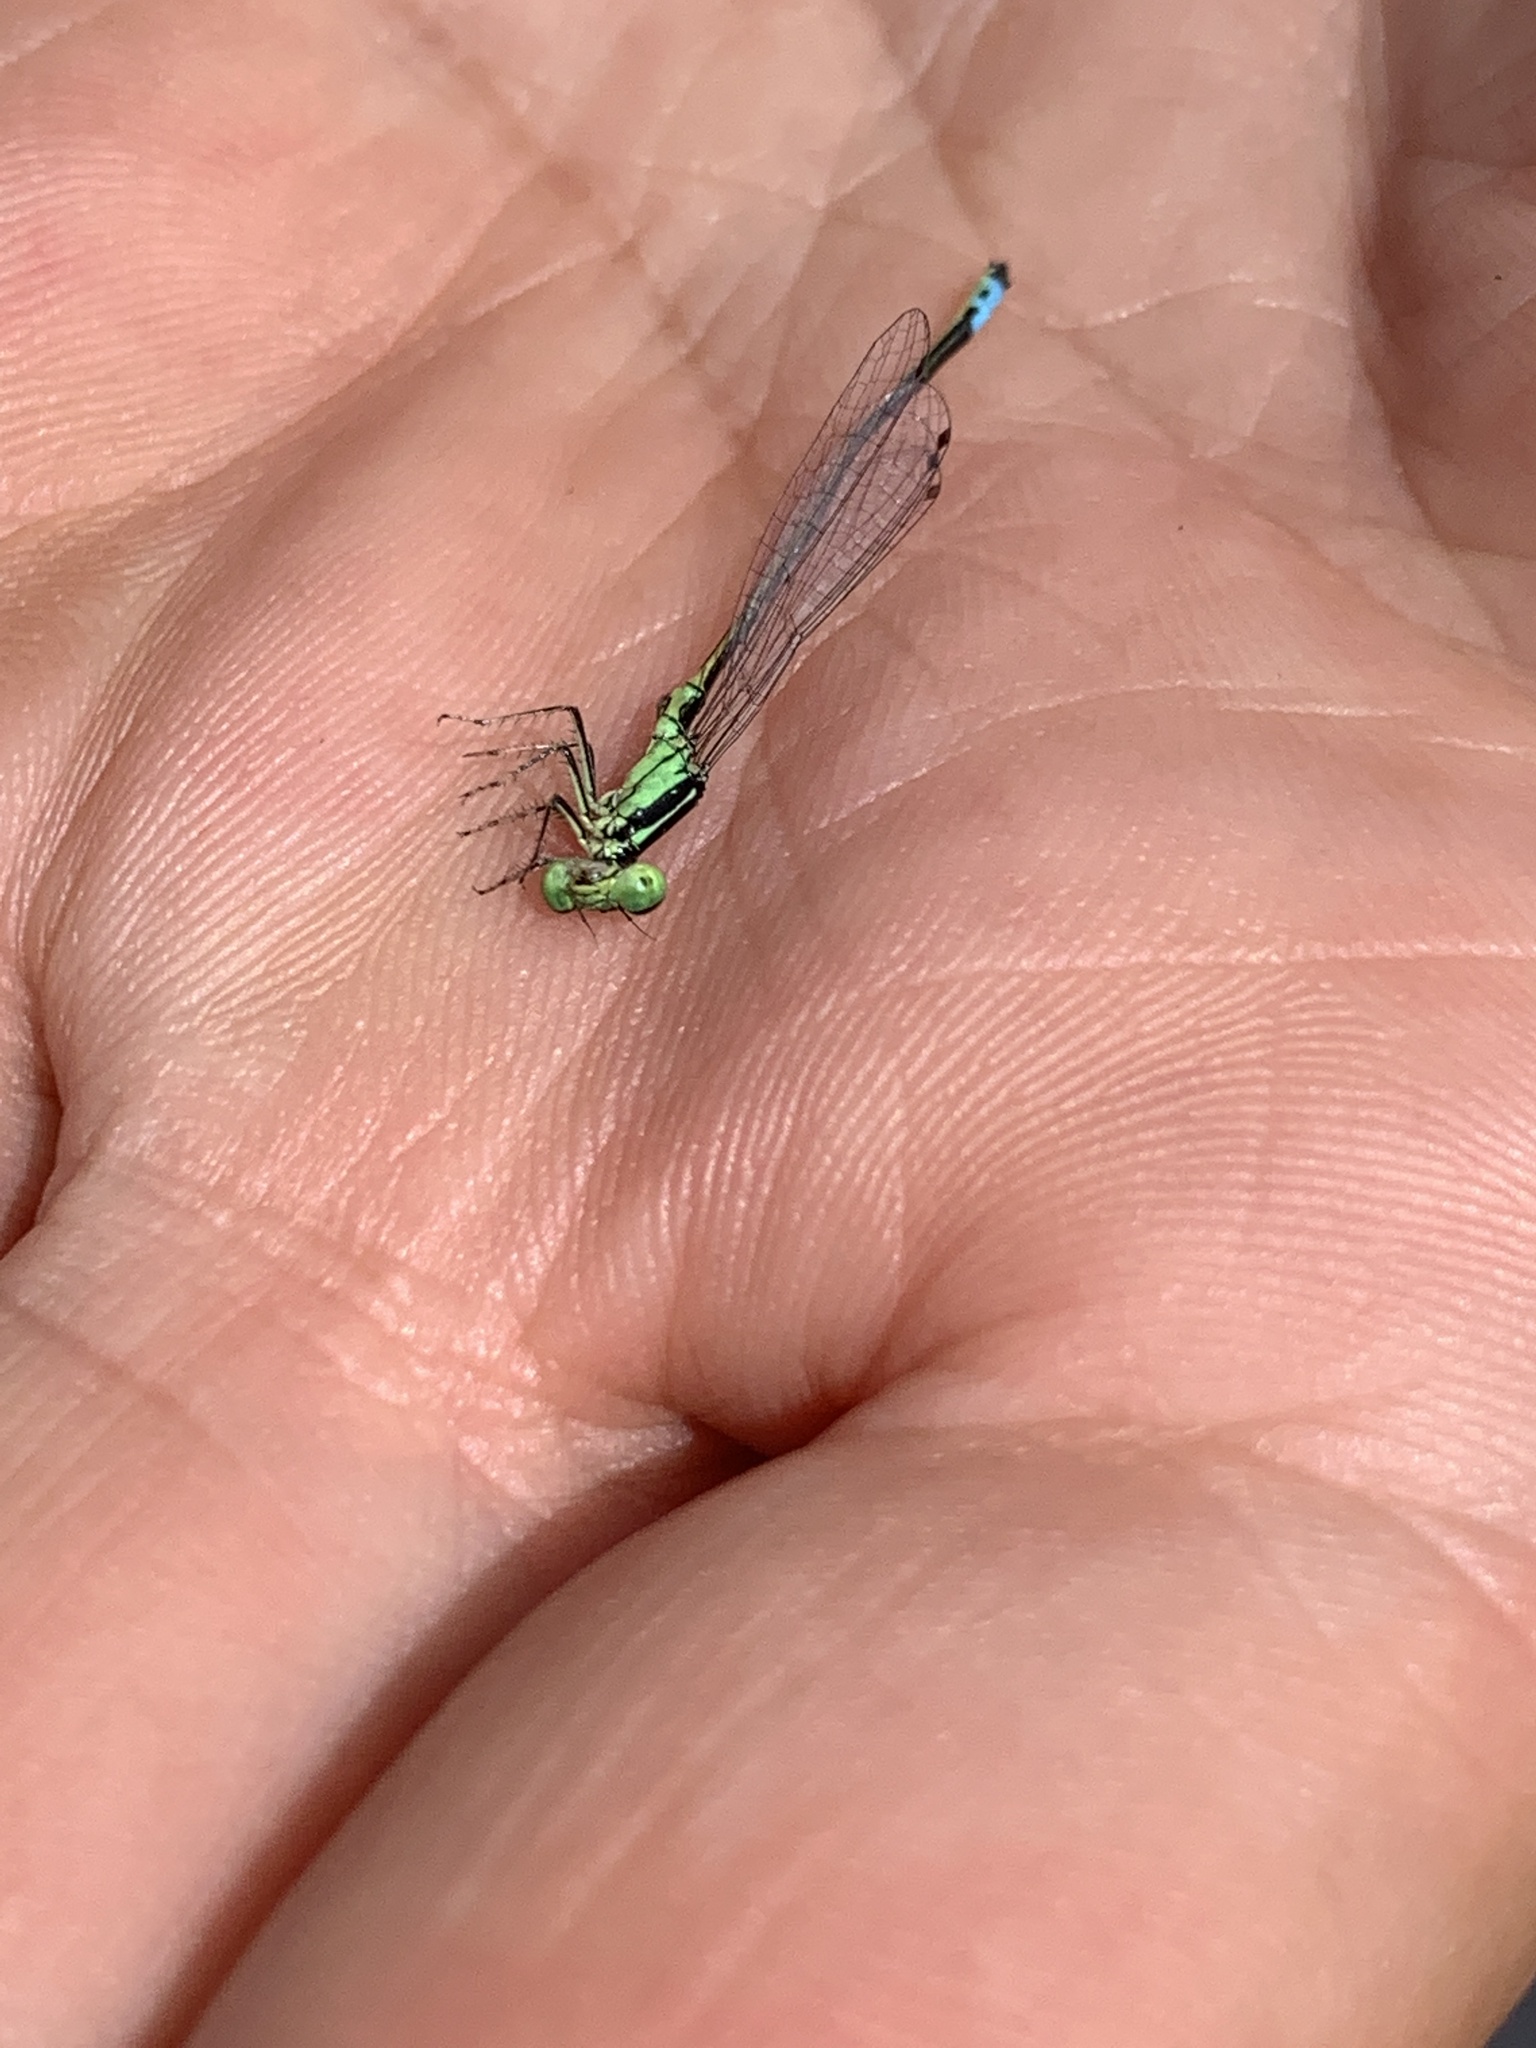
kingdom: Animalia
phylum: Arthropoda
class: Insecta
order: Odonata
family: Coenagrionidae
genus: Ischnura
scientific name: Ischnura verticalis
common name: Eastern forktail
